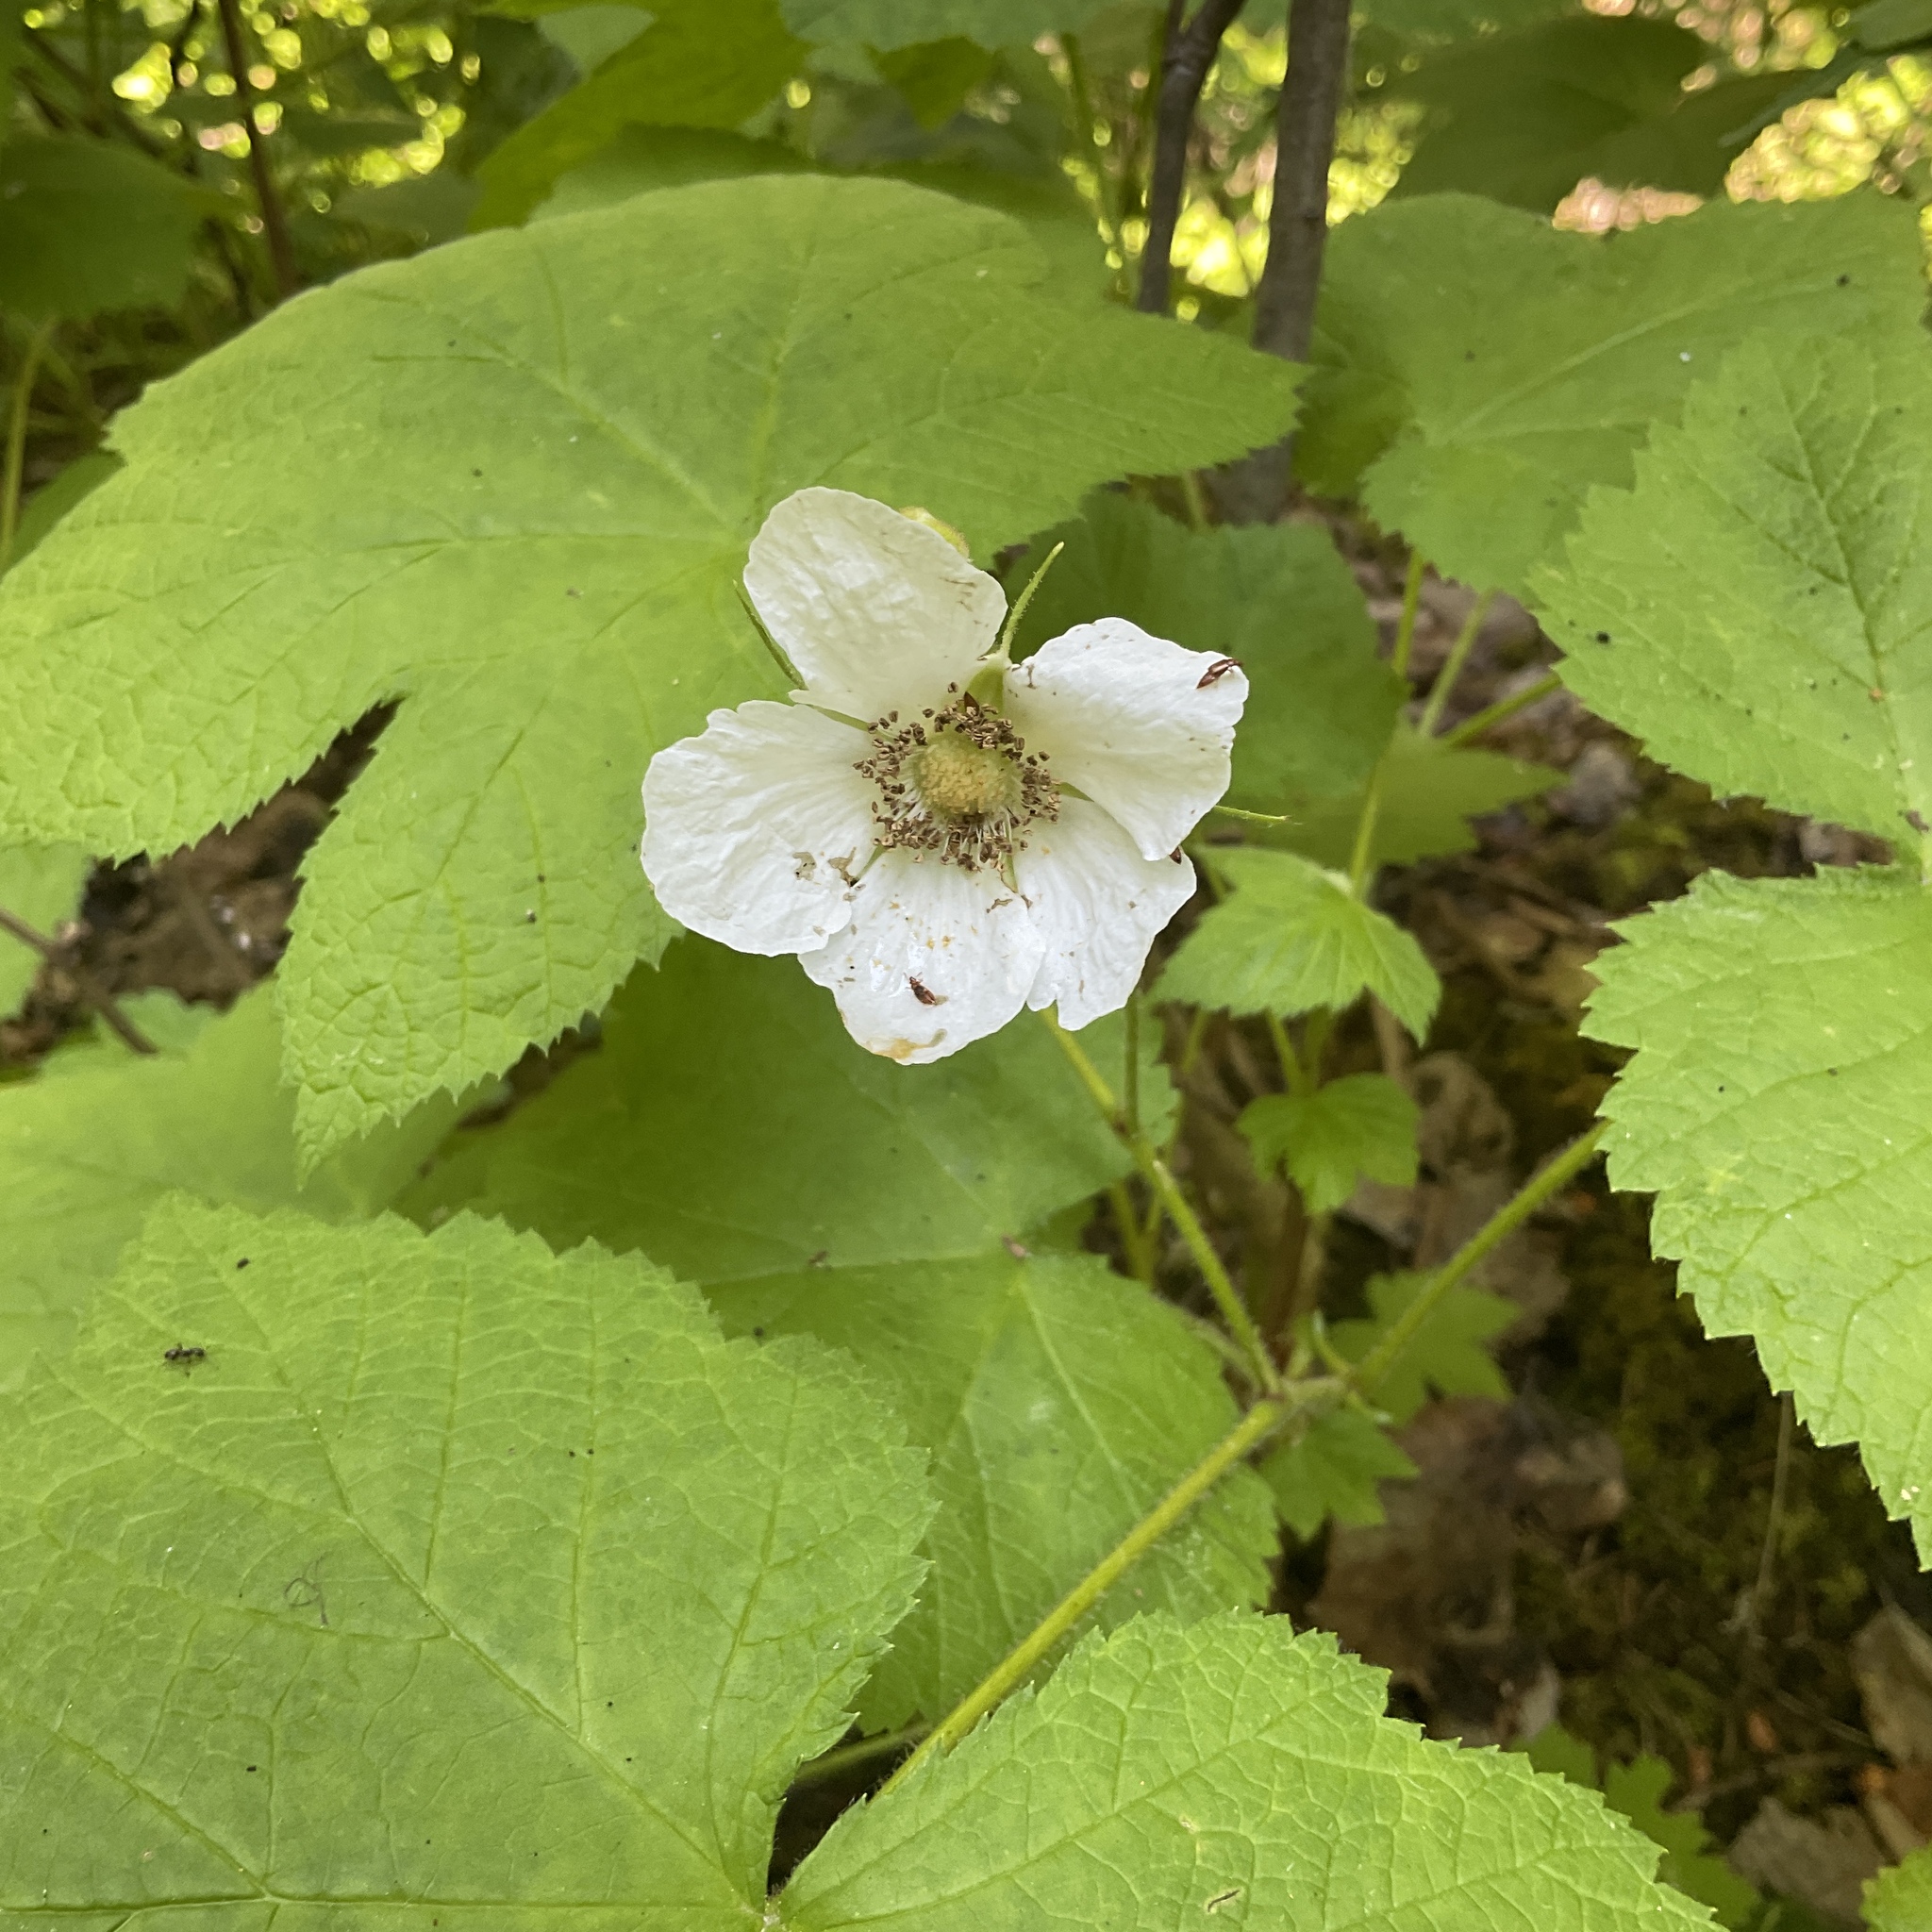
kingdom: Plantae
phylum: Tracheophyta
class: Magnoliopsida
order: Rosales
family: Rosaceae
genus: Rubus
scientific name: Rubus parviflorus
